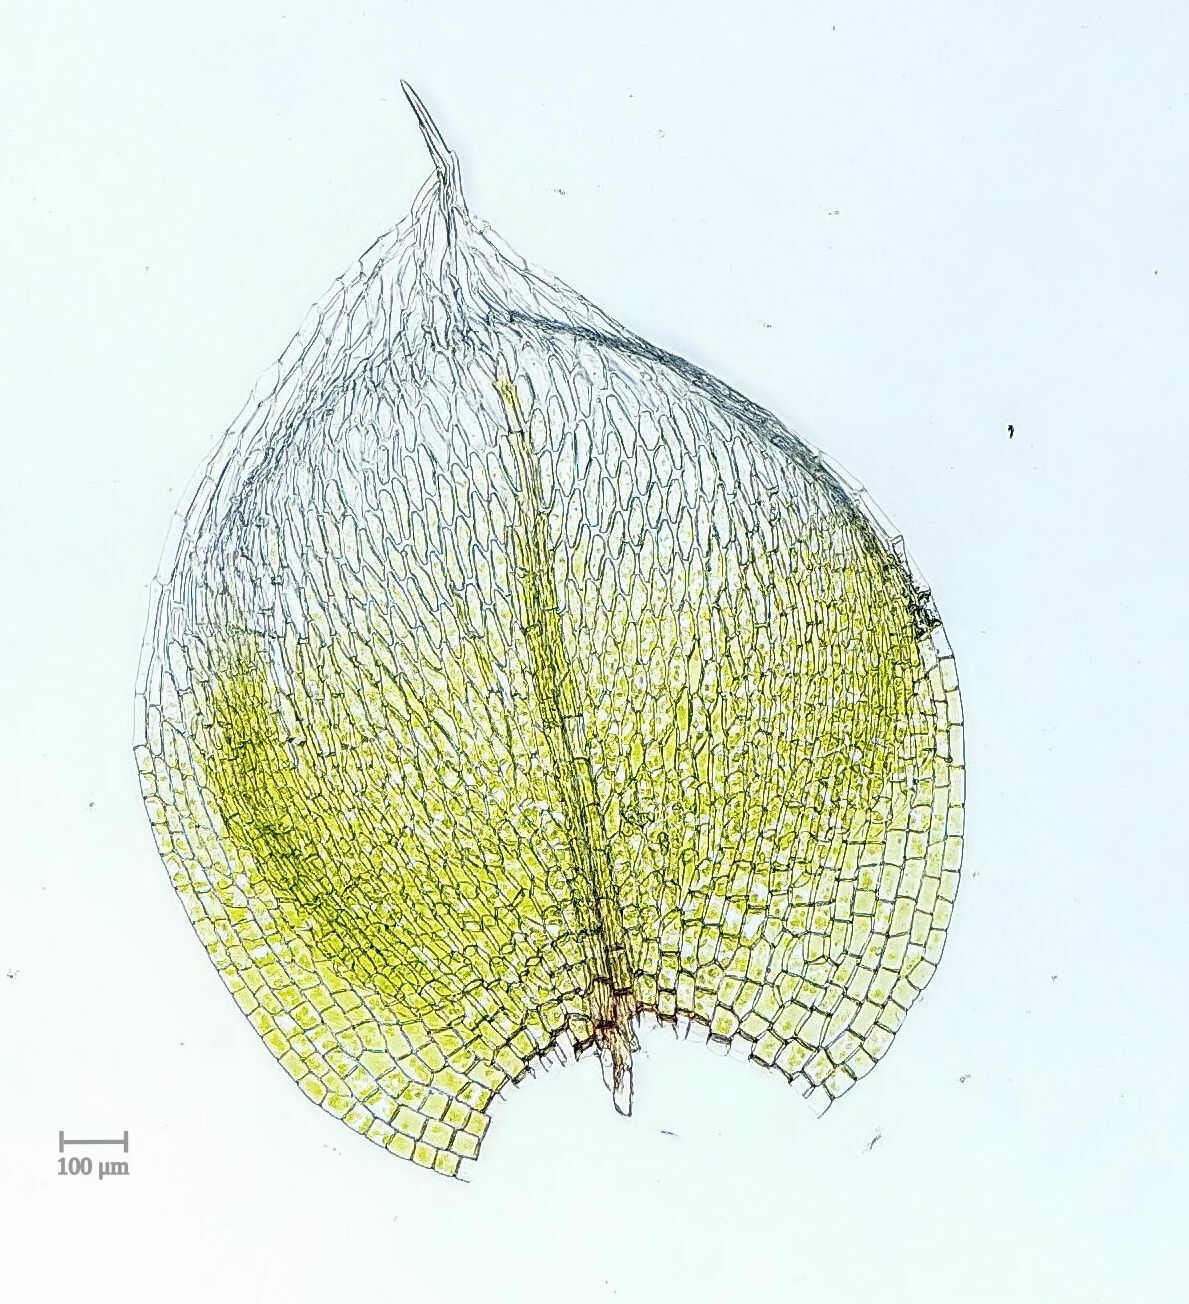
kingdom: Plantae
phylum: Bryophyta
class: Bryopsida
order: Bryales
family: Bryaceae
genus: Bryum
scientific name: Bryum argenteum
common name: Silver-moss
